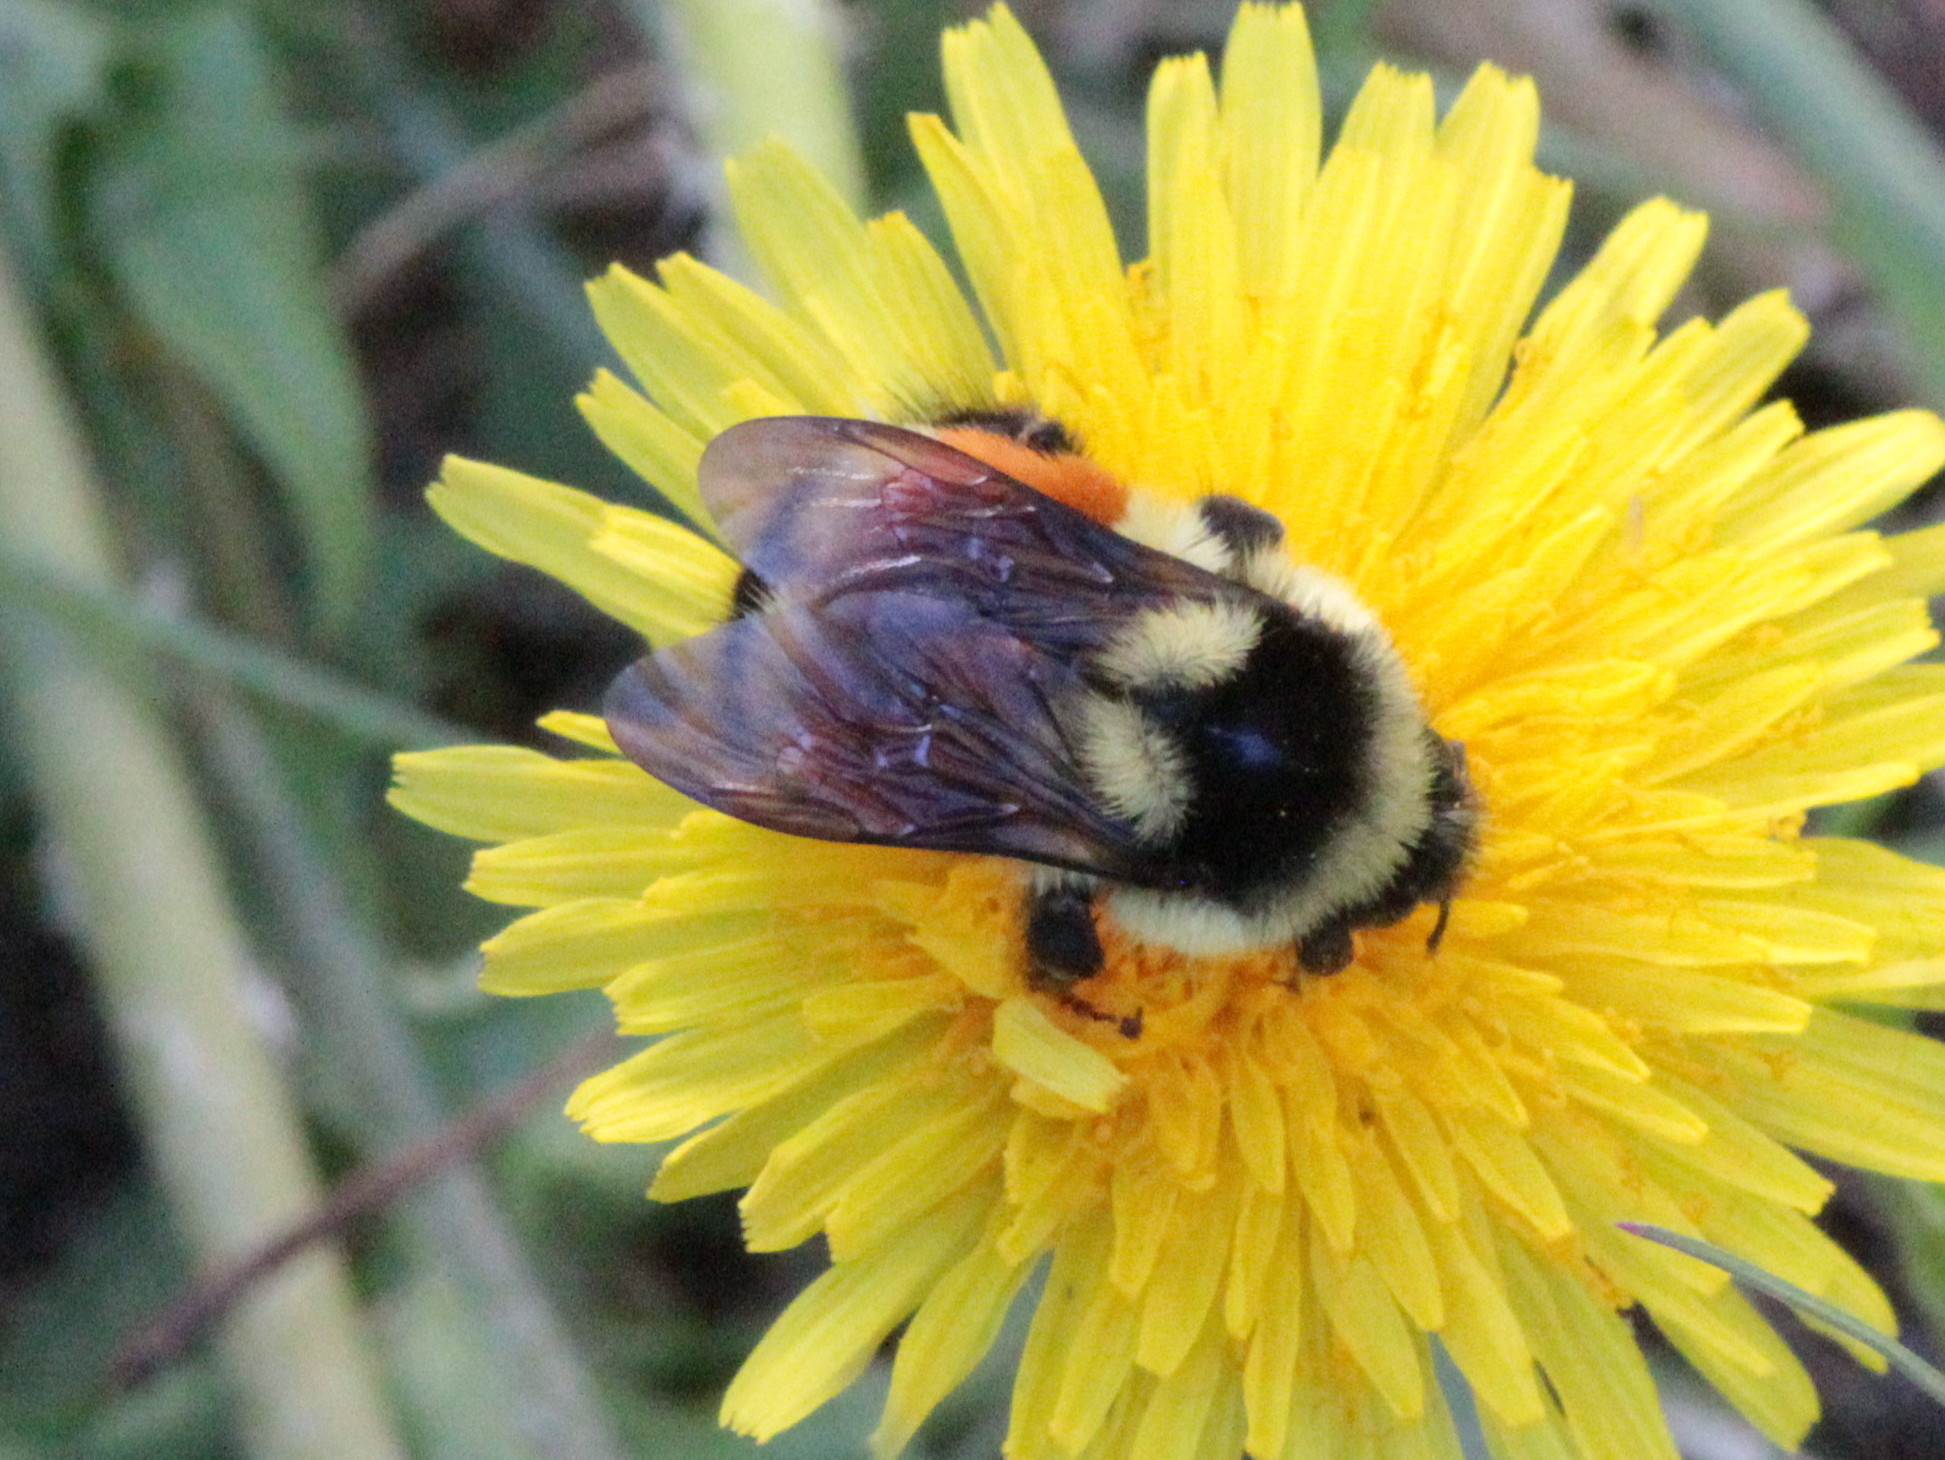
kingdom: Animalia
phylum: Arthropoda
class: Insecta
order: Hymenoptera
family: Apidae
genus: Bombus
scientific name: Bombus ternarius
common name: Tri-colored bumble bee
